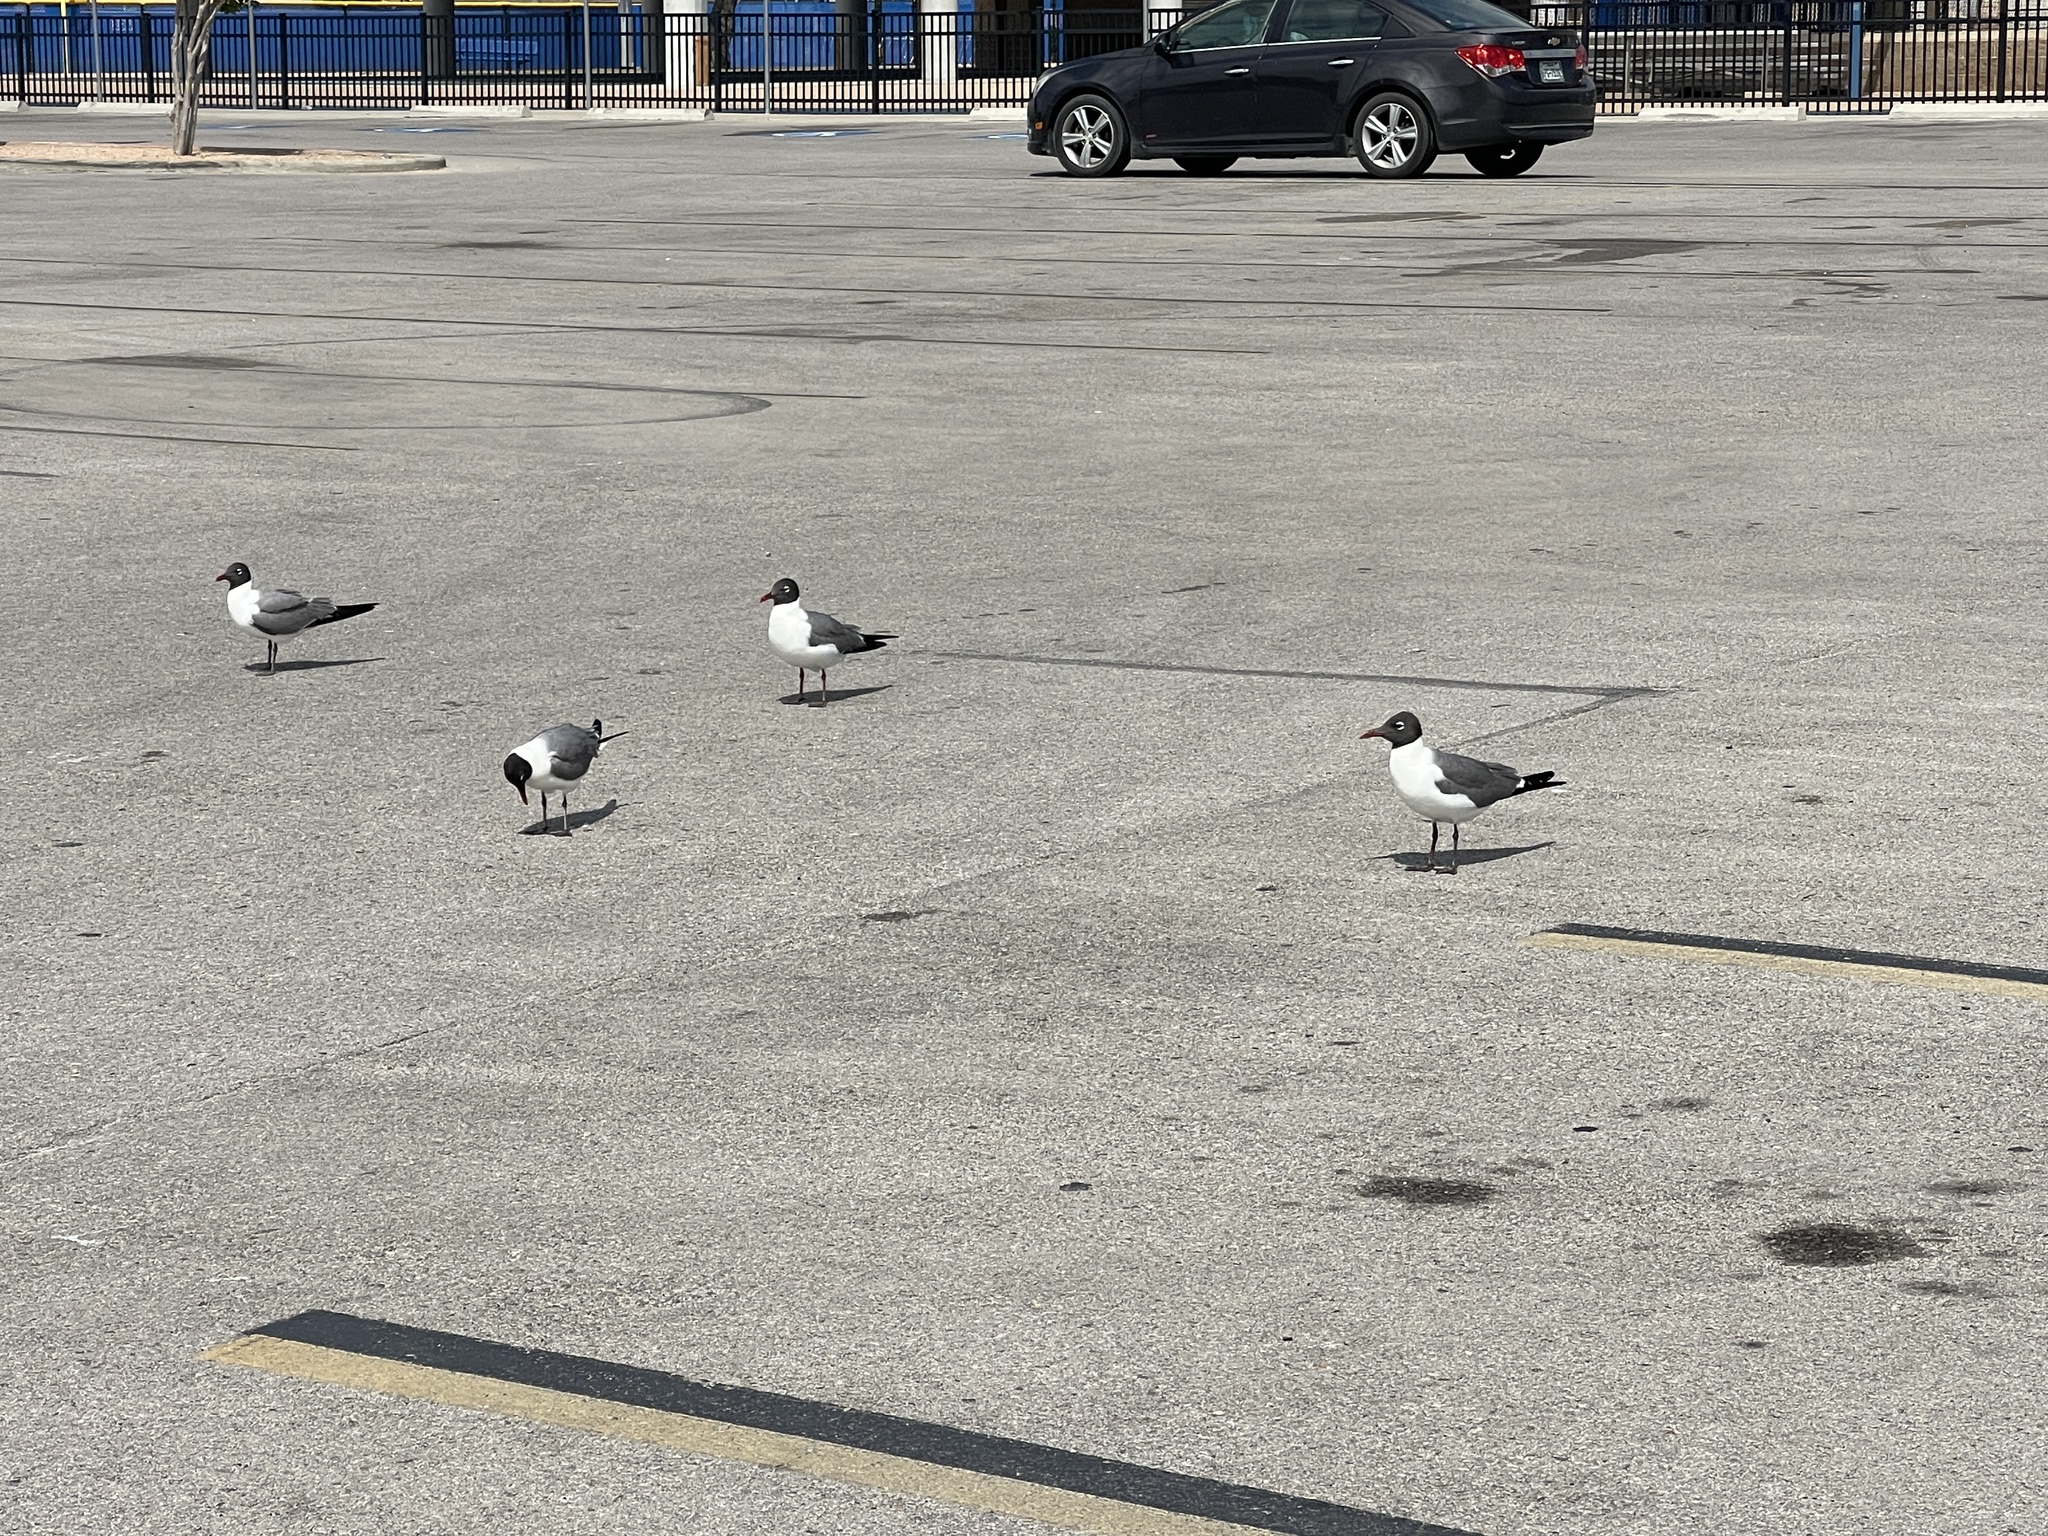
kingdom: Animalia
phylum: Chordata
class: Aves
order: Charadriiformes
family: Laridae
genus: Leucophaeus
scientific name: Leucophaeus atricilla
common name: Laughing gull
